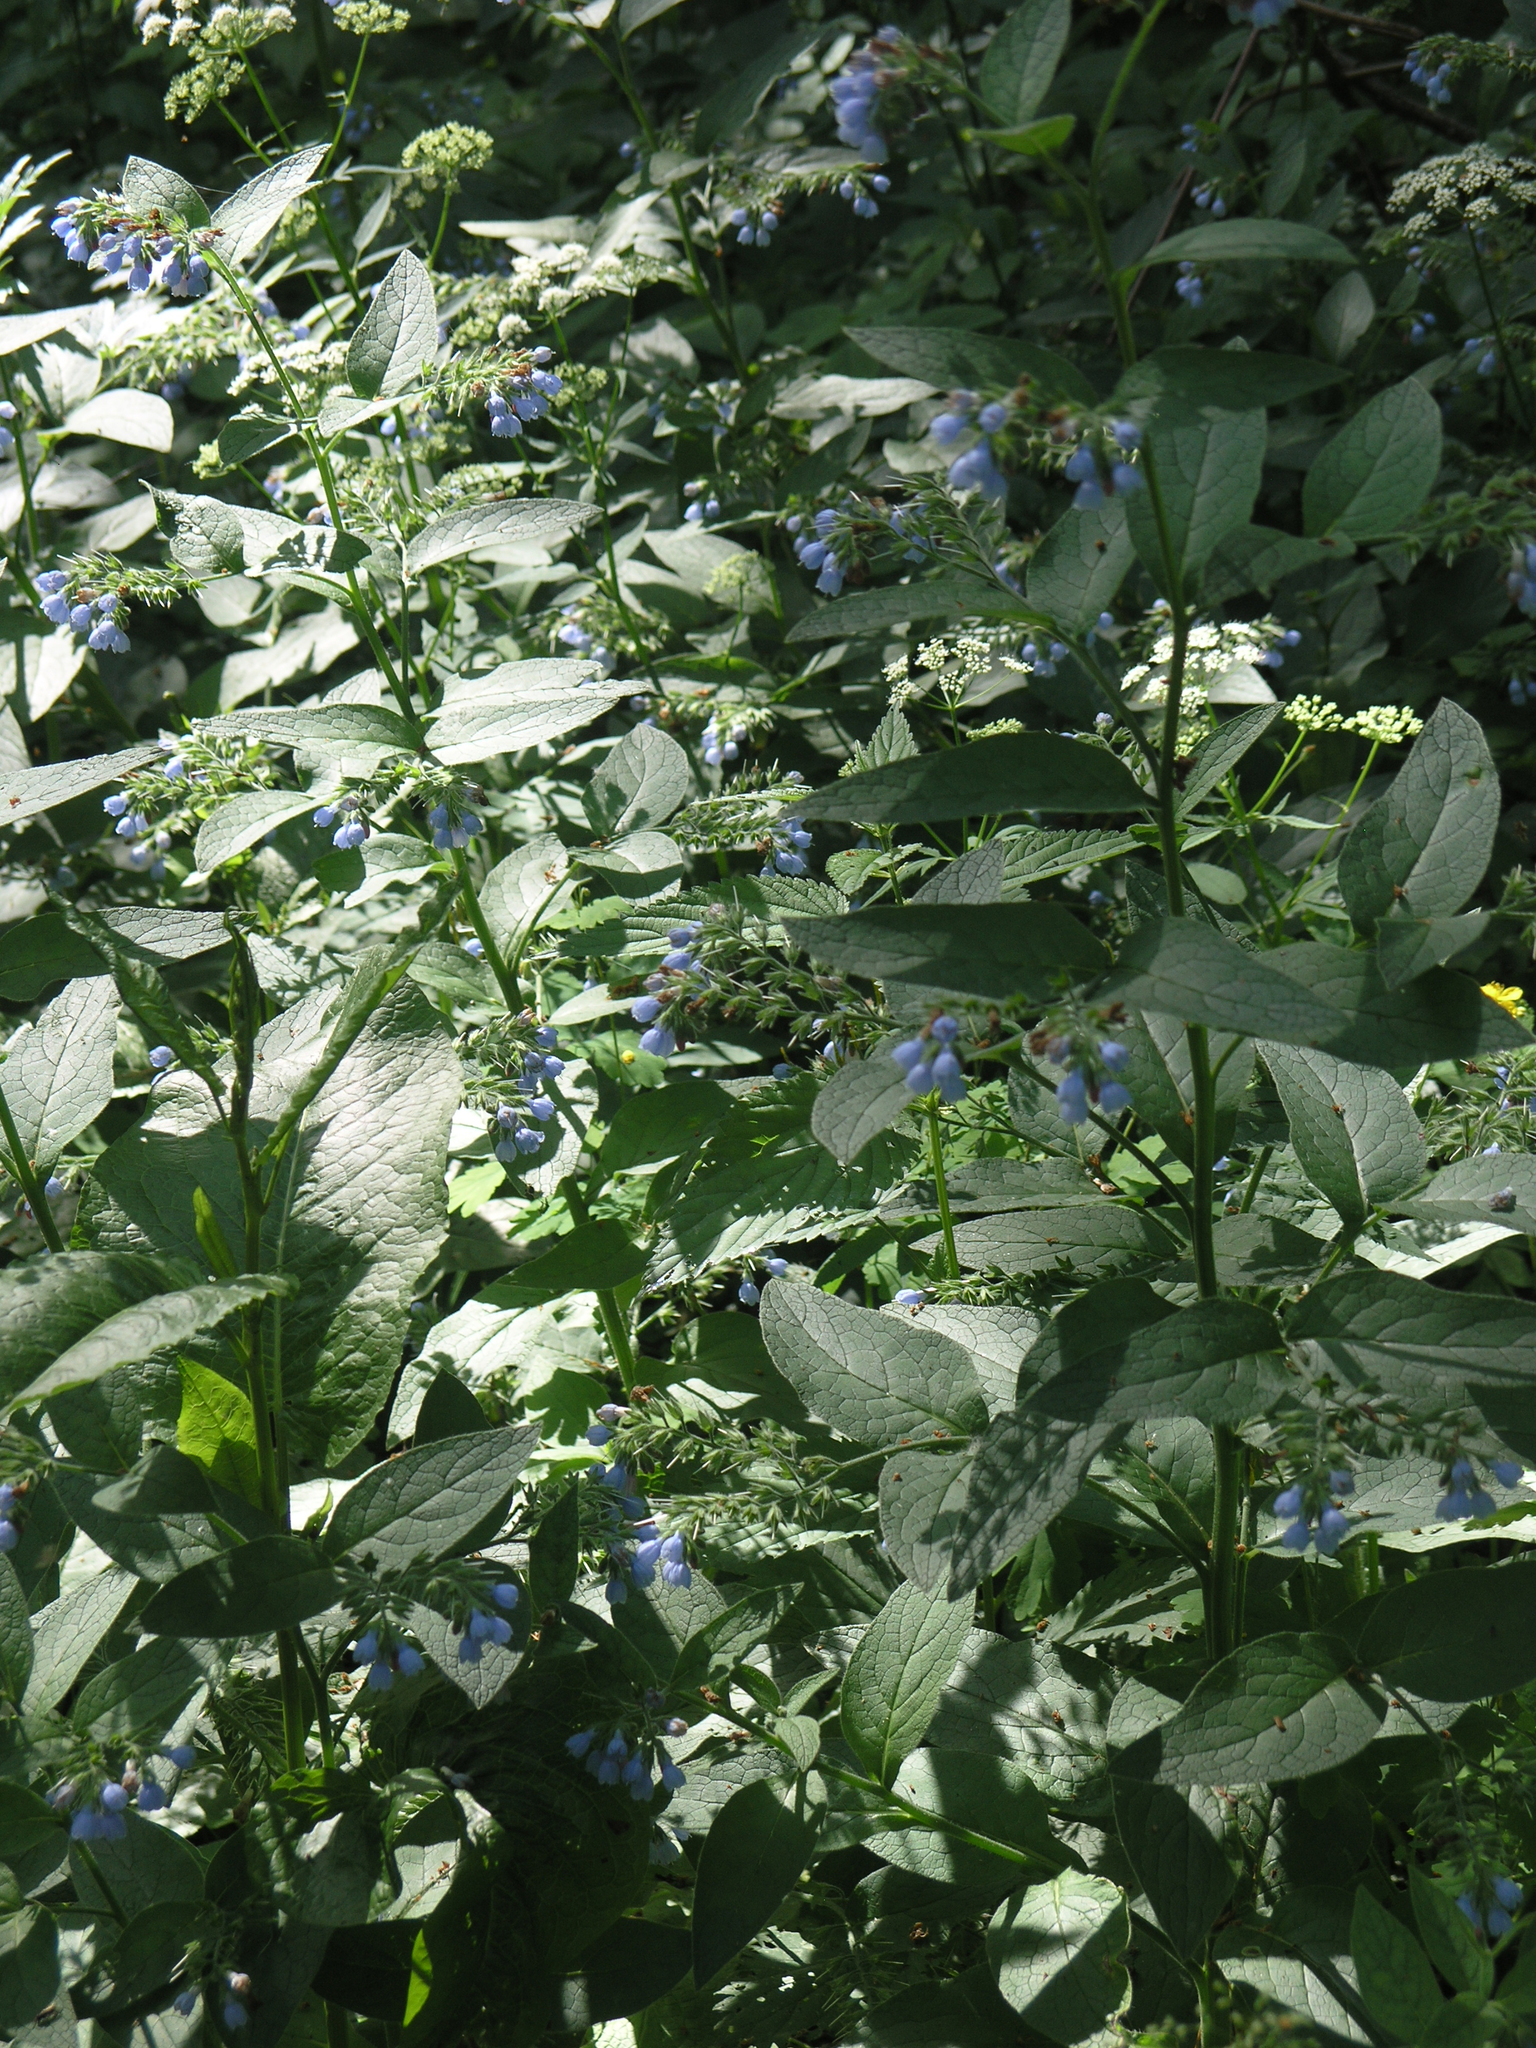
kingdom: Plantae
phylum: Tracheophyta
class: Magnoliopsida
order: Boraginales
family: Boraginaceae
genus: Symphytum
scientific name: Symphytum caucasicum
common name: Caucasian comfrey
